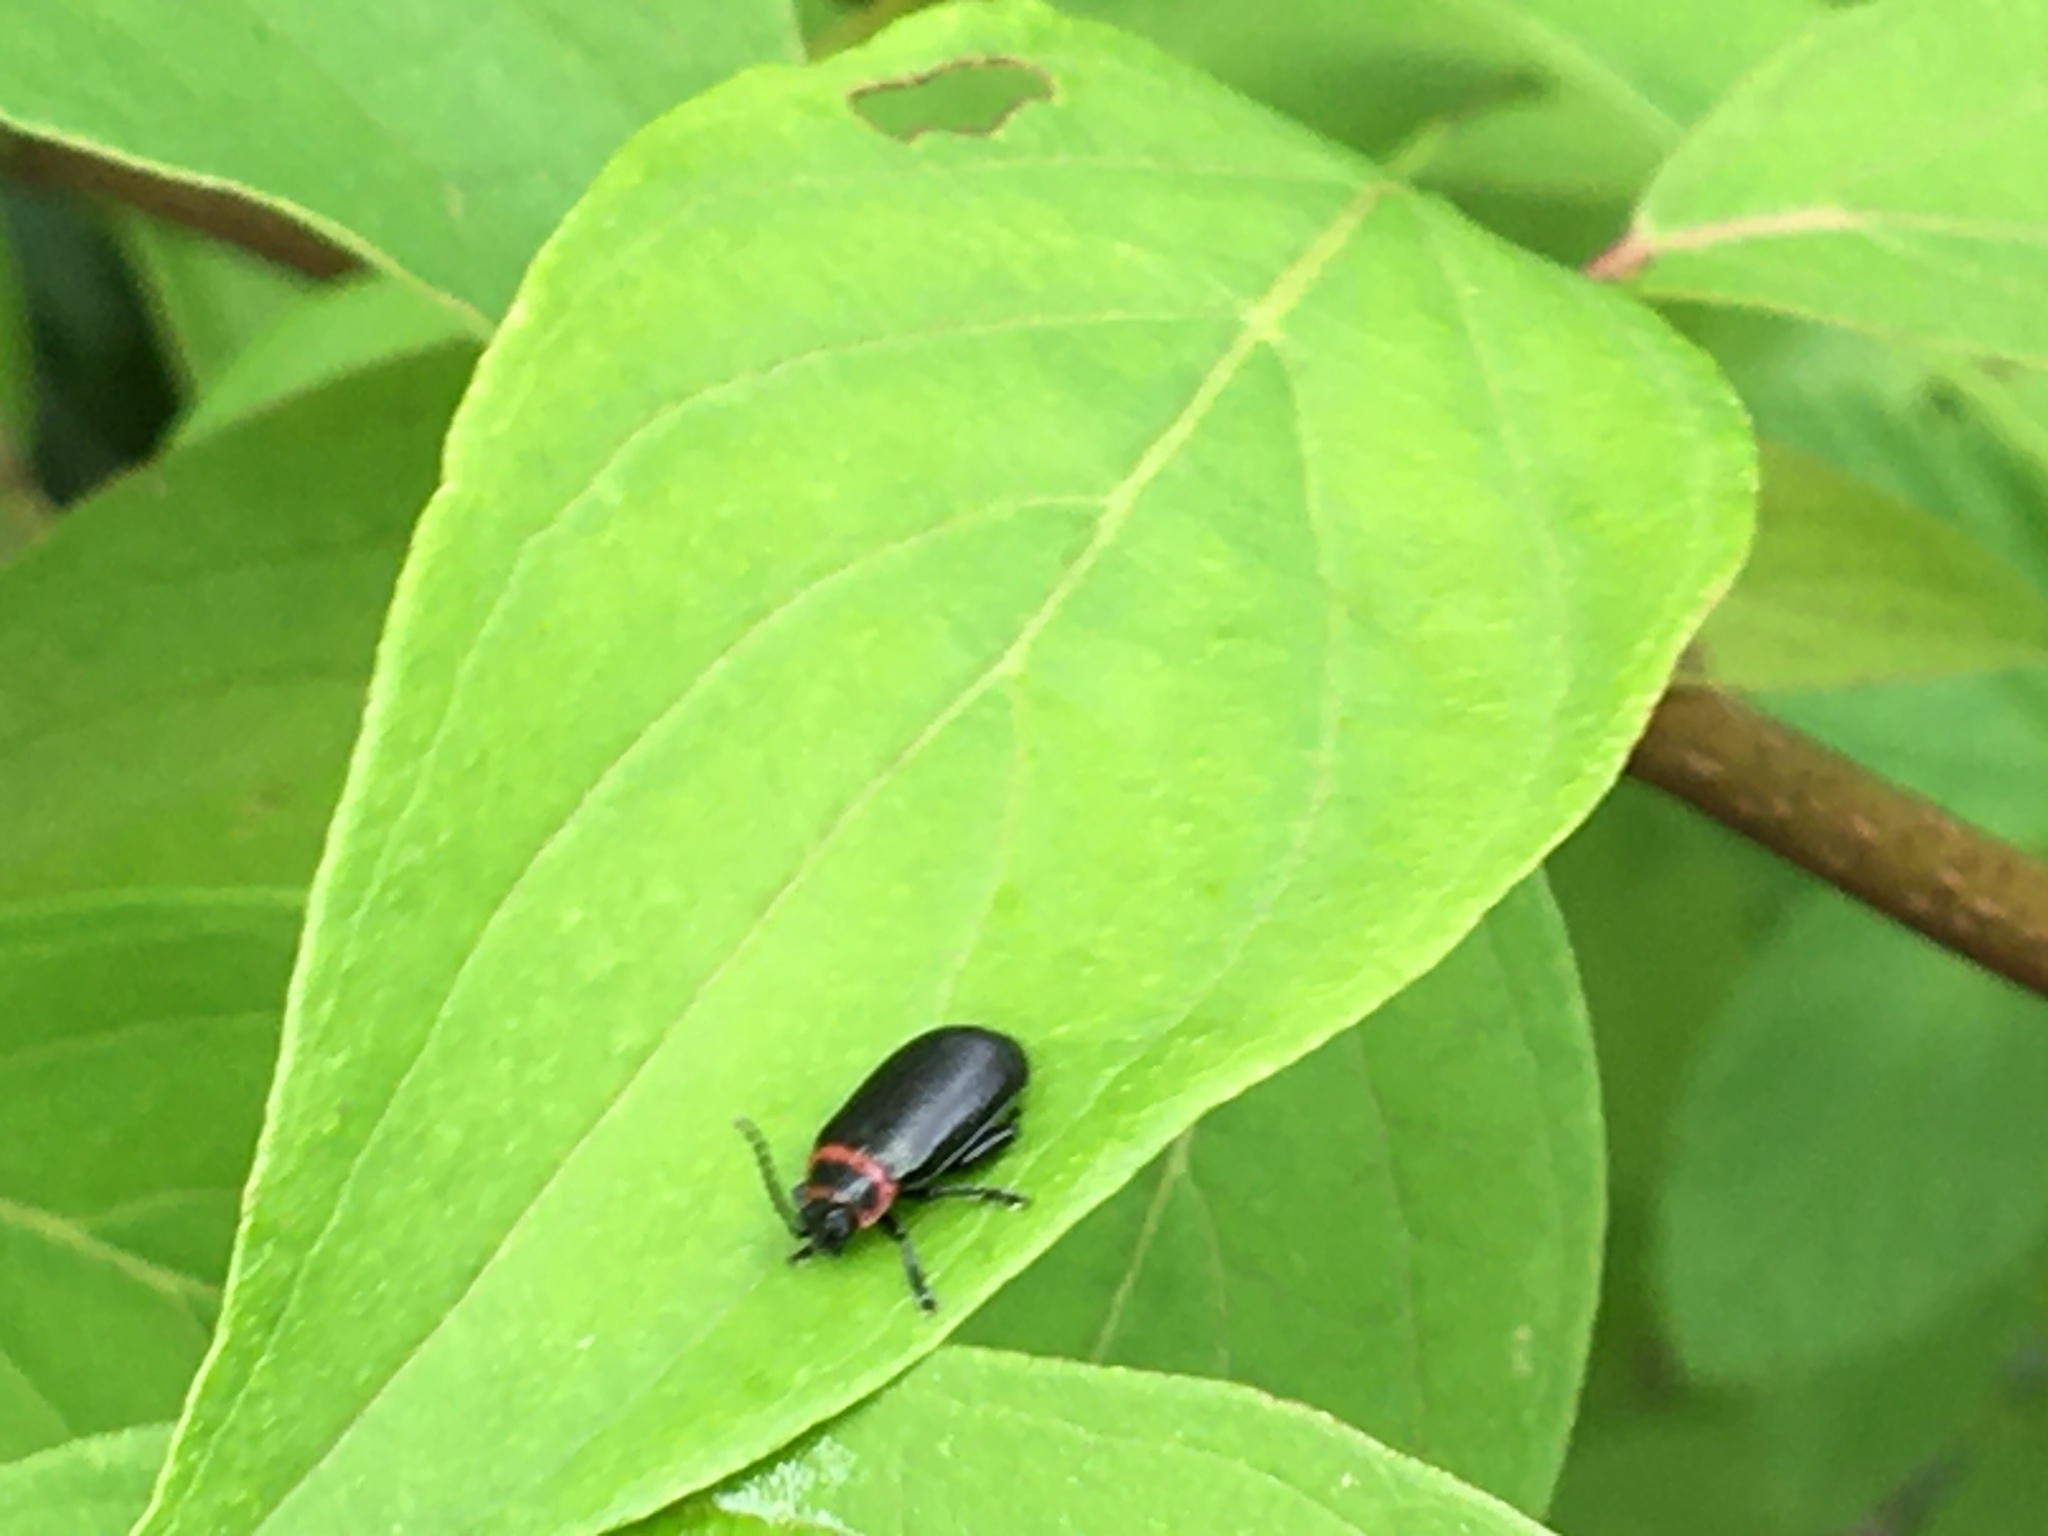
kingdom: Animalia
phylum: Arthropoda
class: Insecta
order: Coleoptera
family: Chrysomelidae
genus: Kuschelina
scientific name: Kuschelina vians
